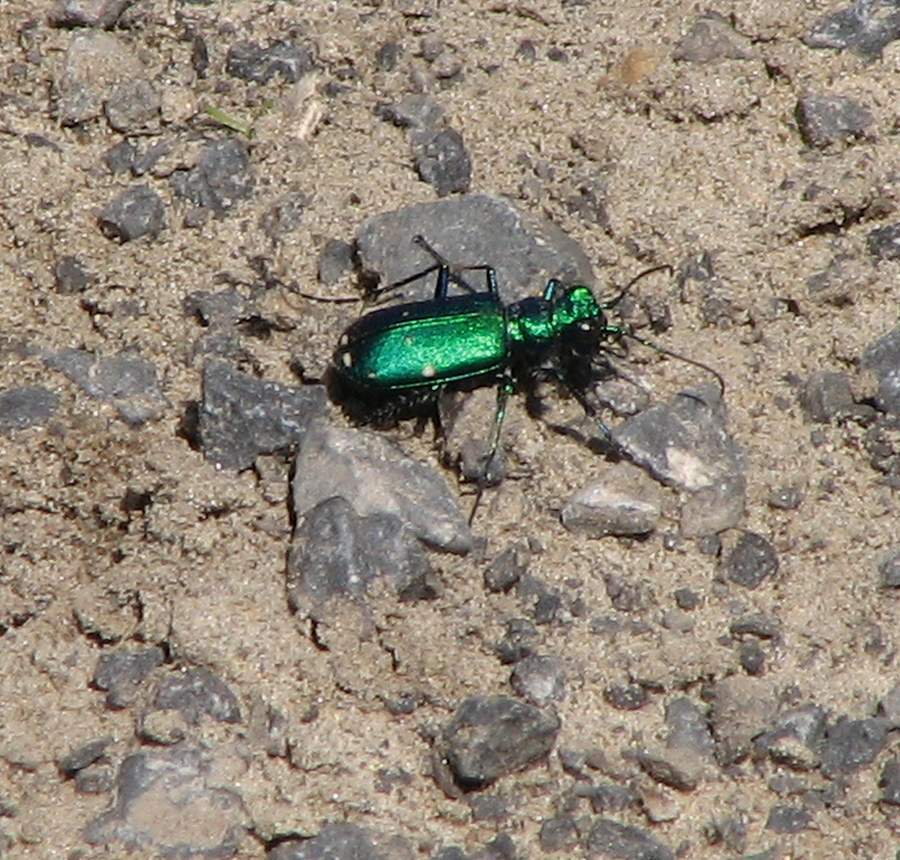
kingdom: Animalia
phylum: Arthropoda
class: Insecta
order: Coleoptera
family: Carabidae
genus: Cicindela
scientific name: Cicindela sexguttata
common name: Six-spotted tiger beetle
